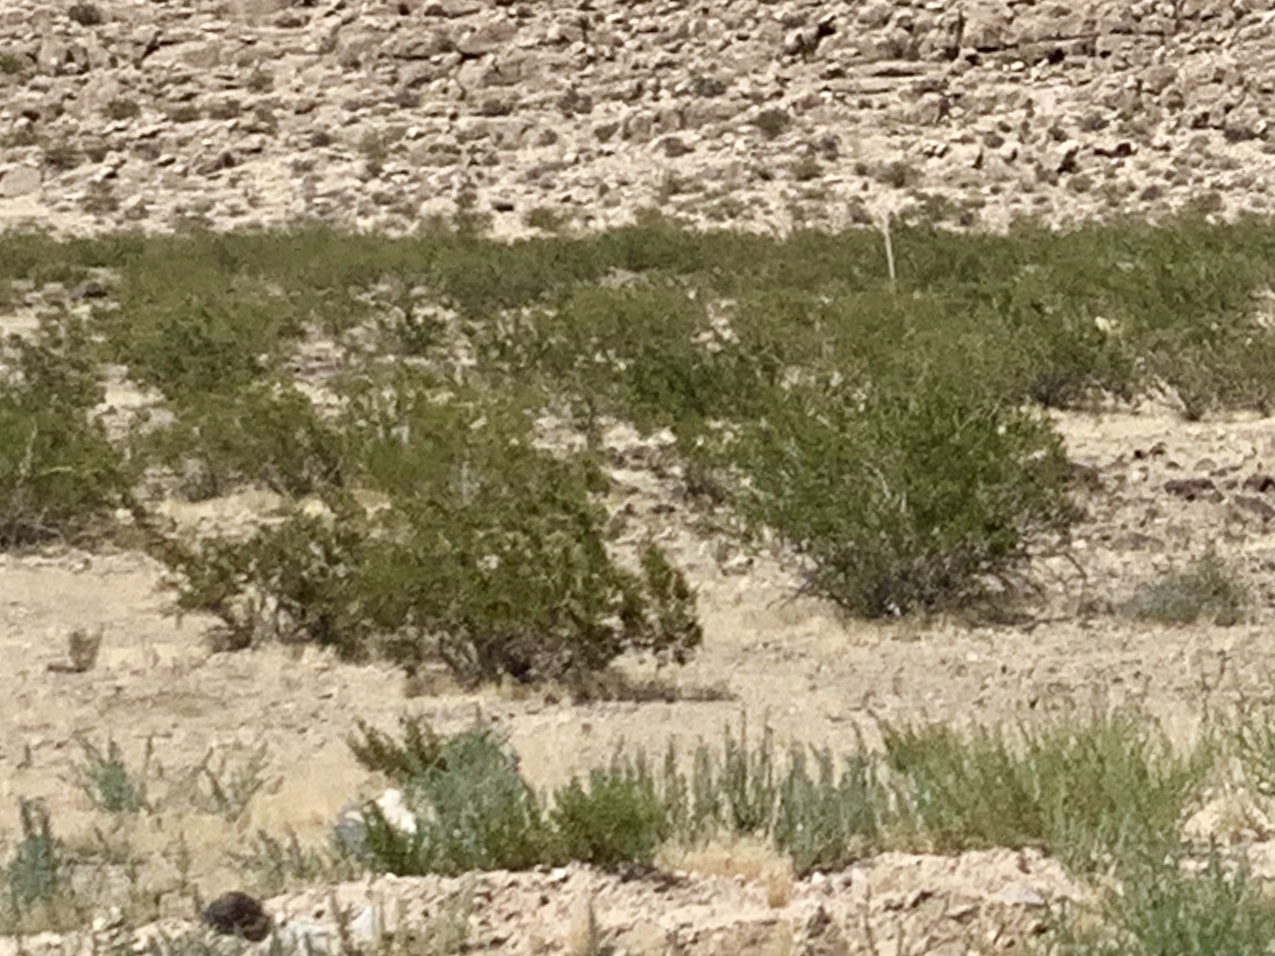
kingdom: Plantae
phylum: Tracheophyta
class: Magnoliopsida
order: Zygophyllales
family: Zygophyllaceae
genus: Larrea
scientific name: Larrea tridentata
